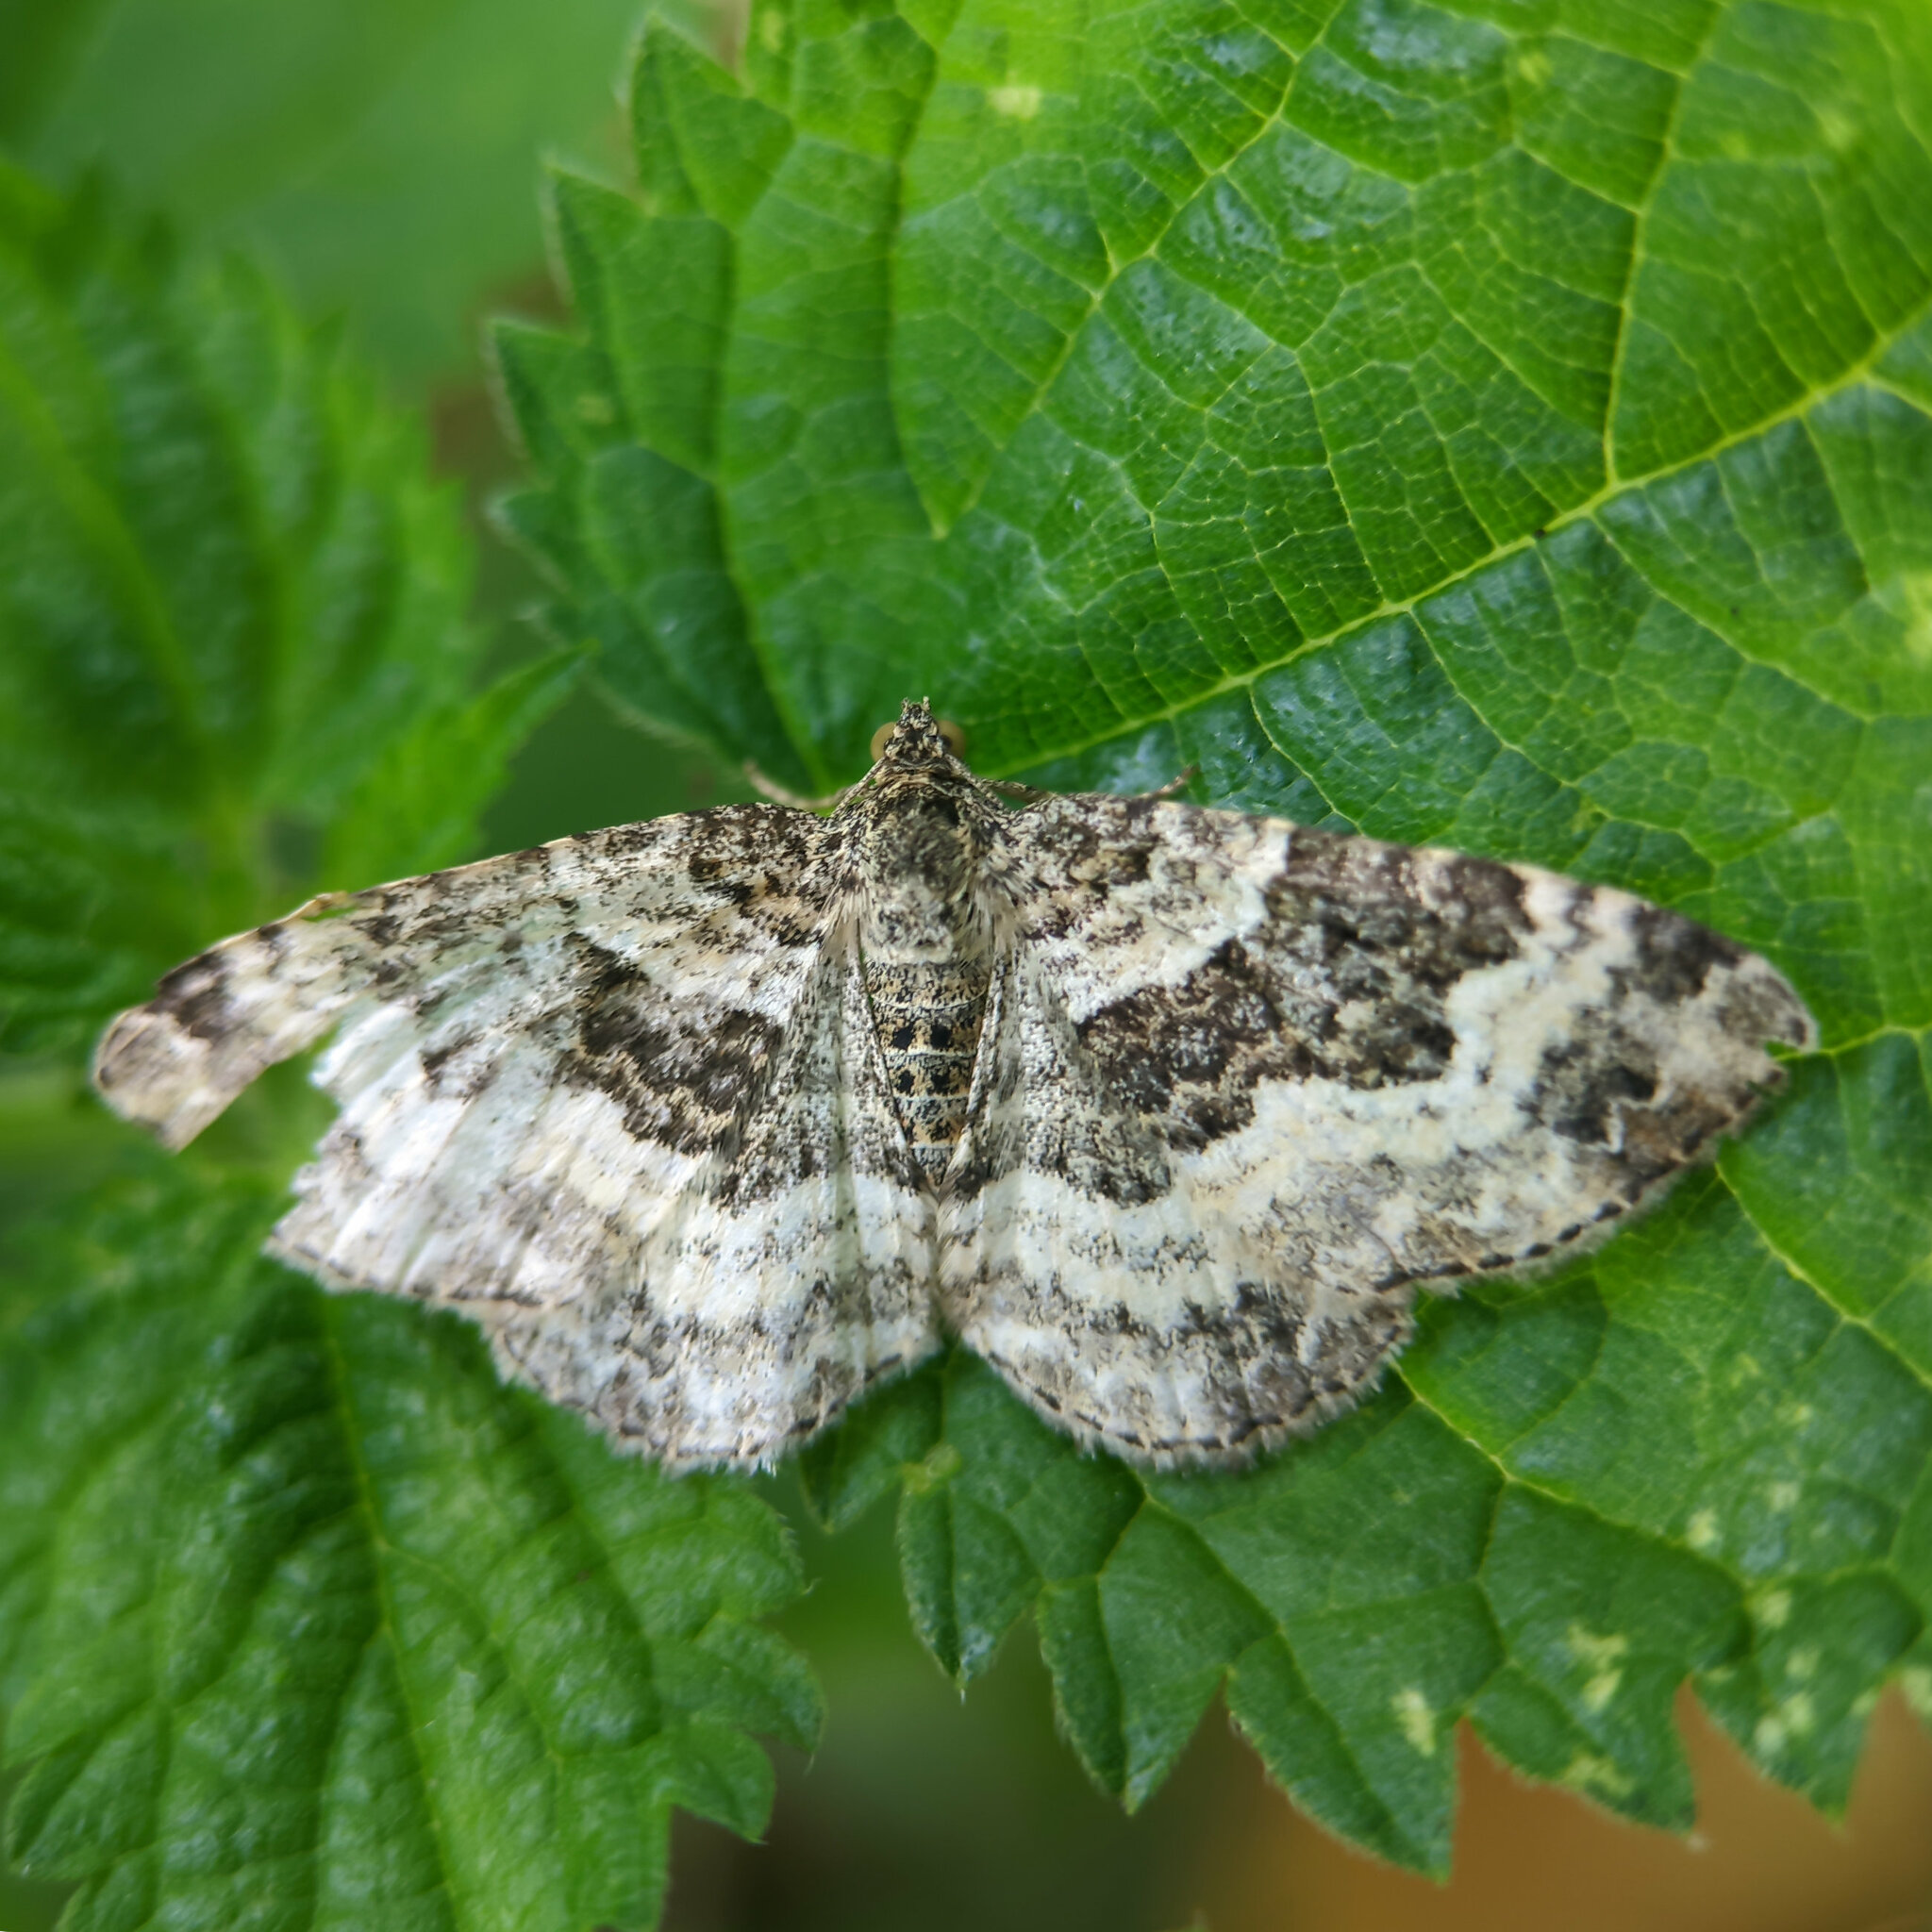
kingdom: Animalia
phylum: Arthropoda
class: Insecta
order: Lepidoptera
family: Geometridae
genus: Epirrhoe
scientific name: Epirrhoe alternata
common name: Common carpet
